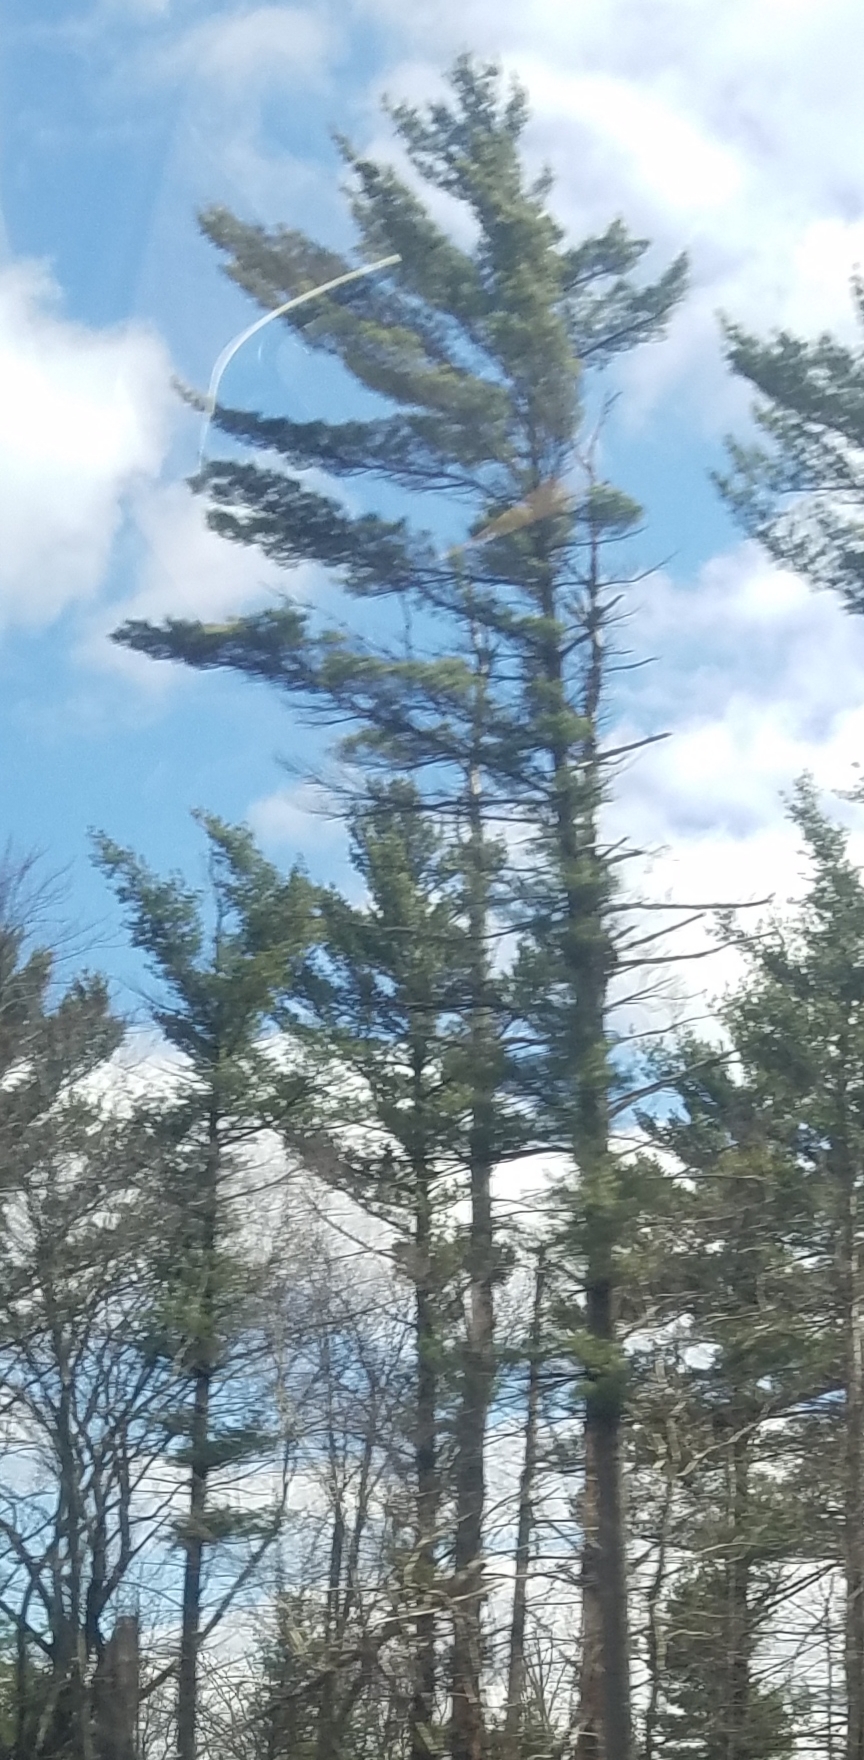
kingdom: Plantae
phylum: Tracheophyta
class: Pinopsida
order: Pinales
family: Pinaceae
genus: Pinus
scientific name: Pinus strobus
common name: Weymouth pine
